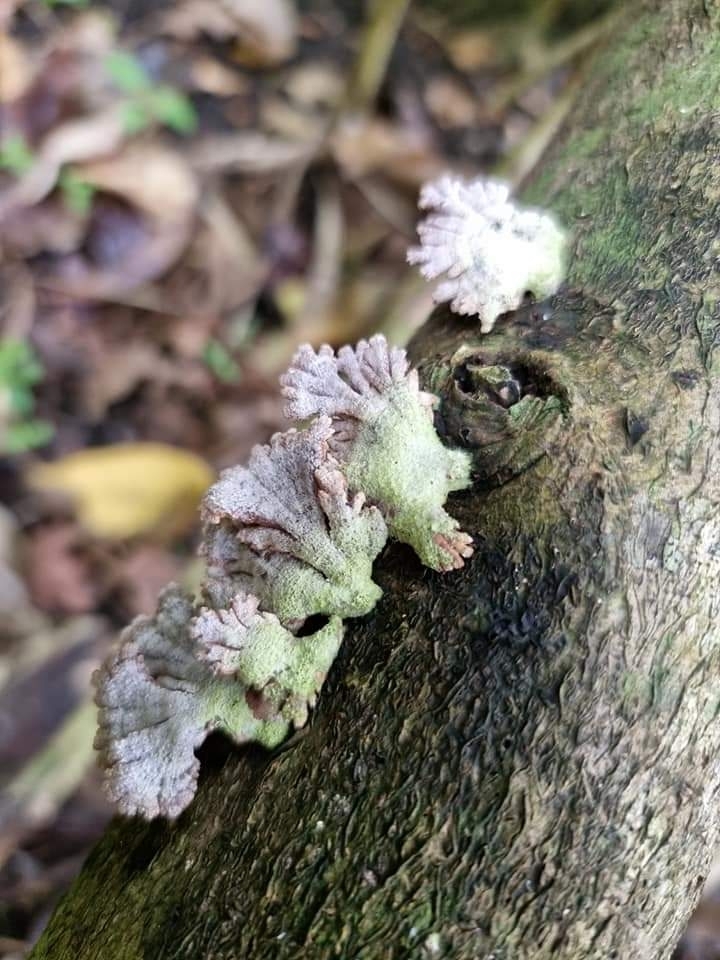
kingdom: Fungi
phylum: Basidiomycota
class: Agaricomycetes
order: Agaricales
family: Schizophyllaceae
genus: Schizophyllum
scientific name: Schizophyllum commune
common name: Common porecrust
